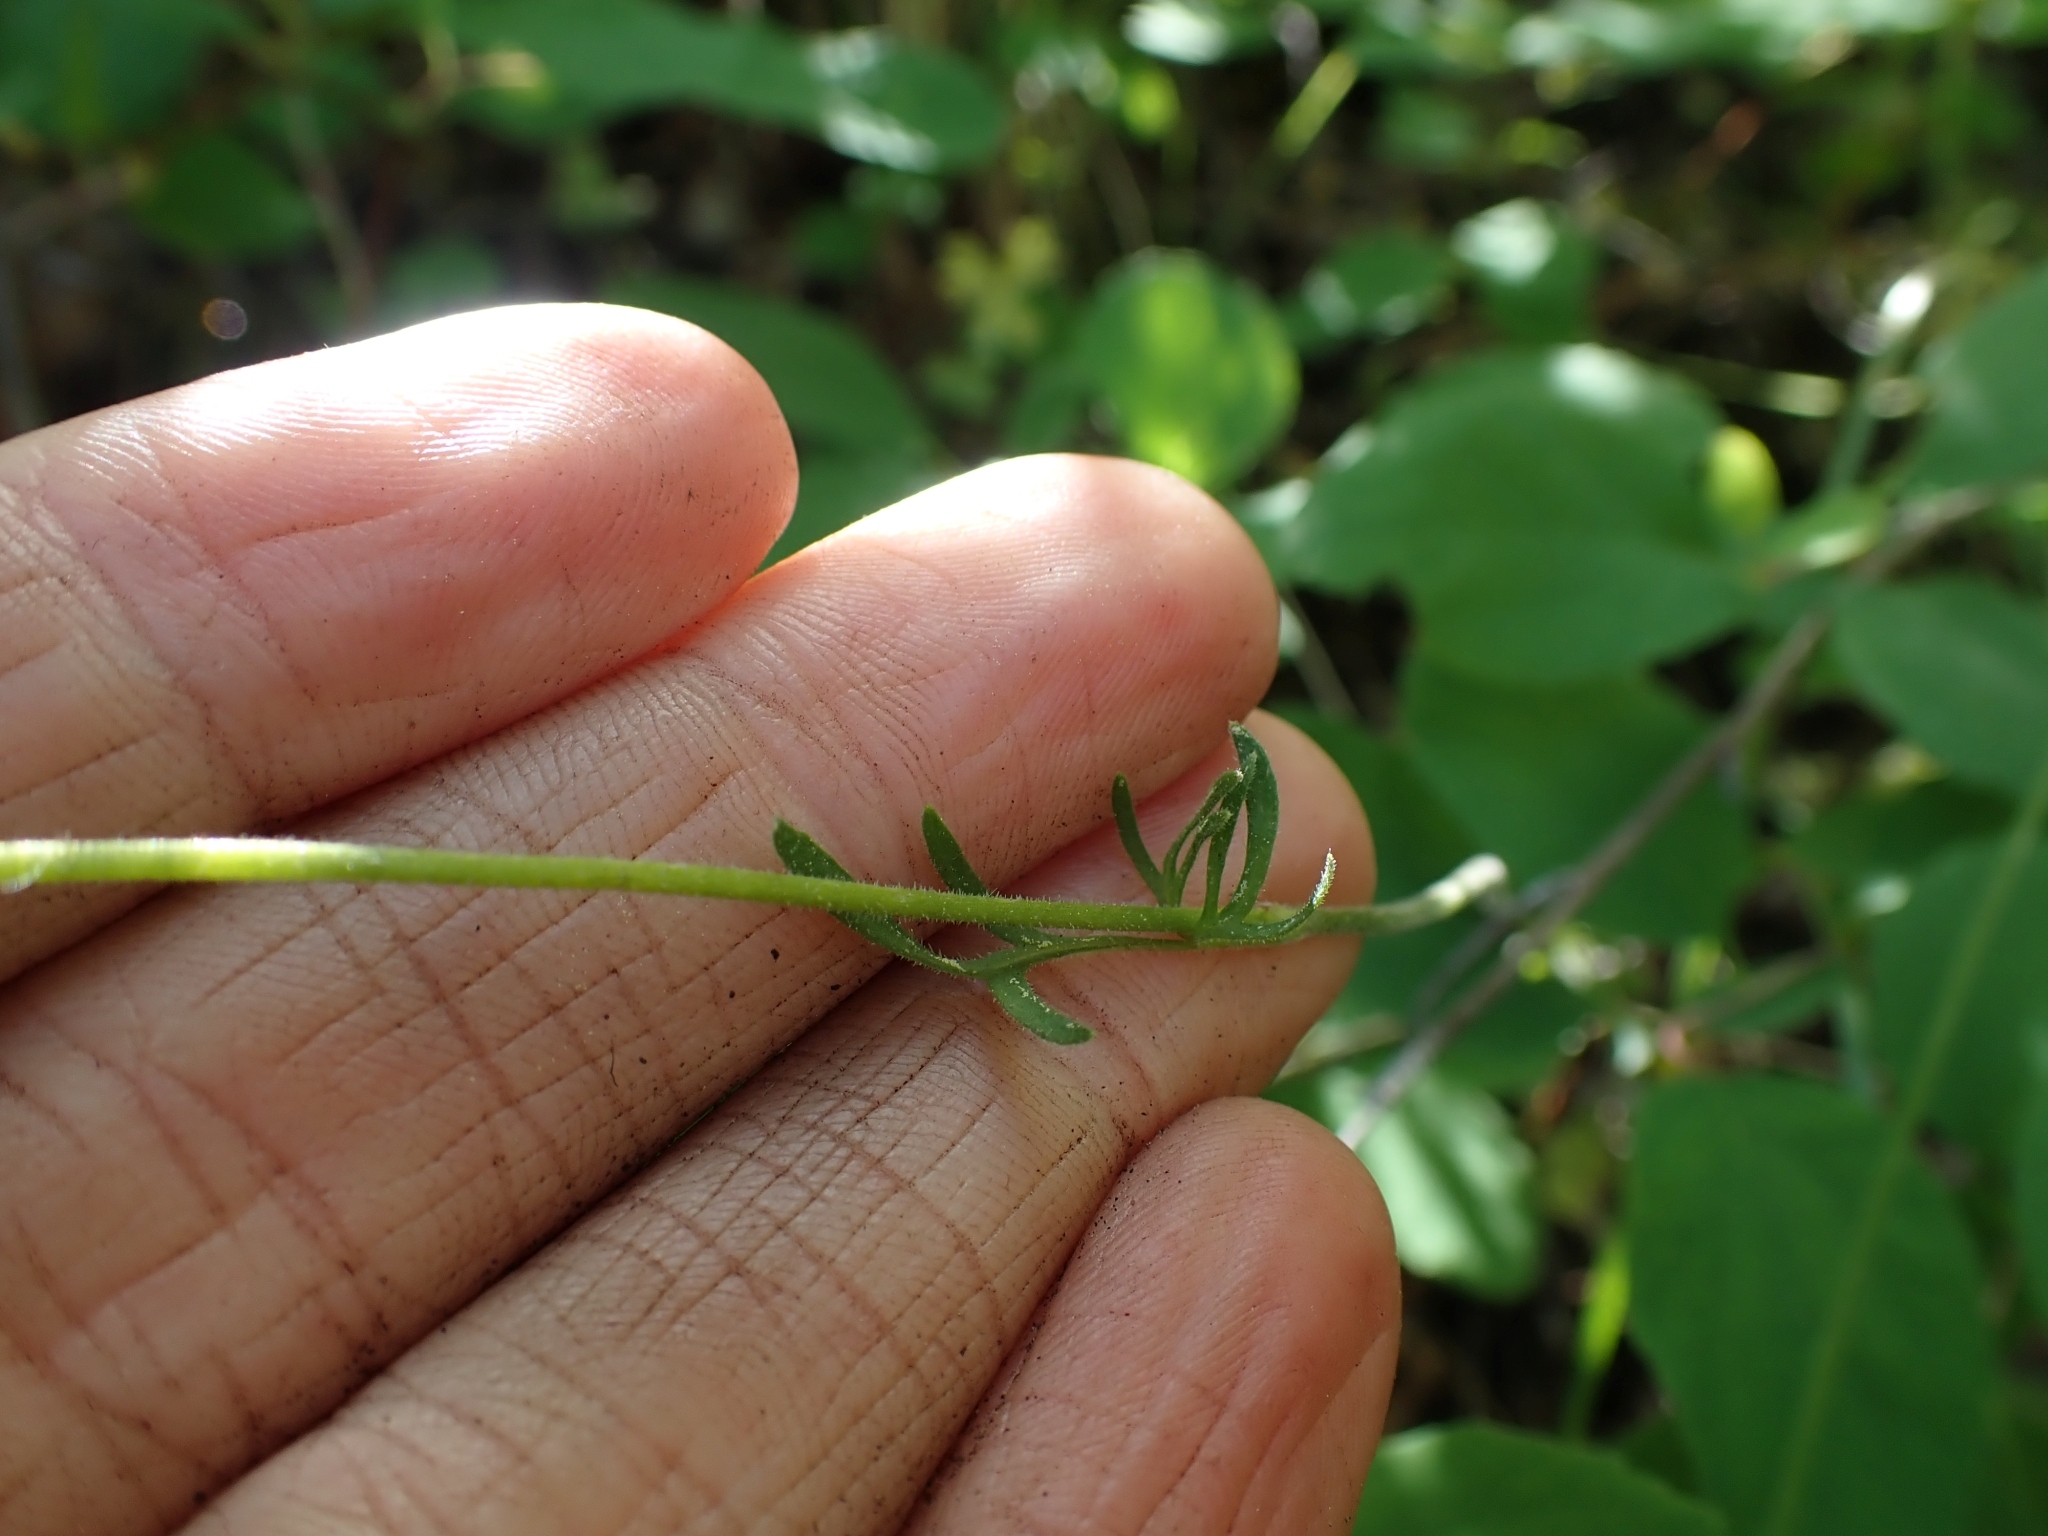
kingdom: Plantae
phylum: Tracheophyta
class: Magnoliopsida
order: Saxifragales
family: Saxifragaceae
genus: Lithophragma
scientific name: Lithophragma parviflorum
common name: Small-flowered fringe-cup
